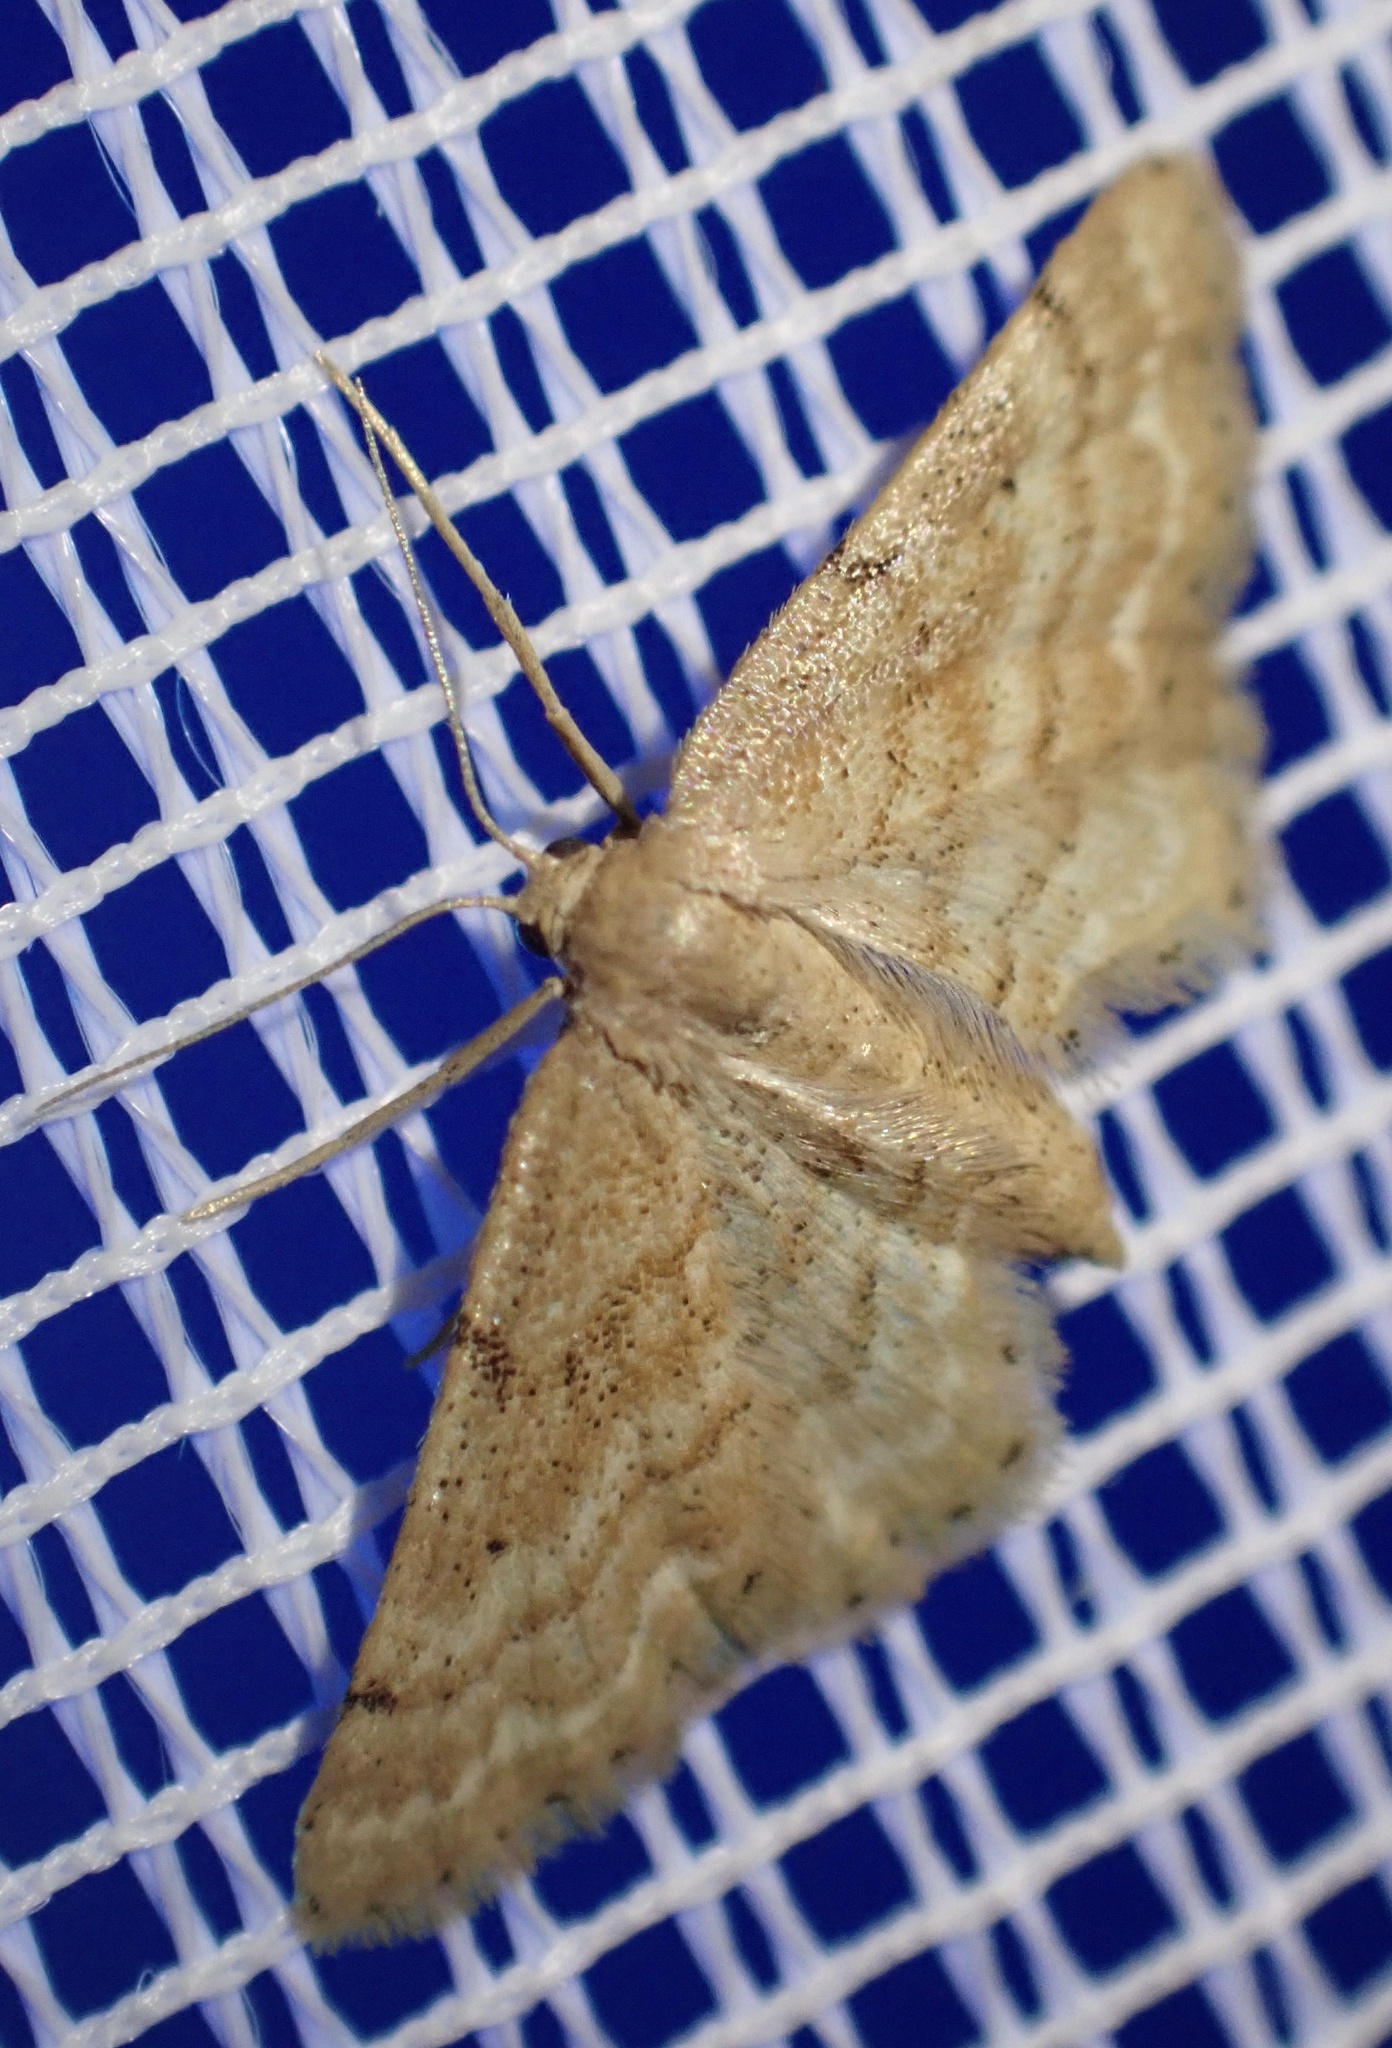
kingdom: Animalia
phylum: Arthropoda
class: Insecta
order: Lepidoptera
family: Geometridae
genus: Idaea
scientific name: Idaea fractilineata
